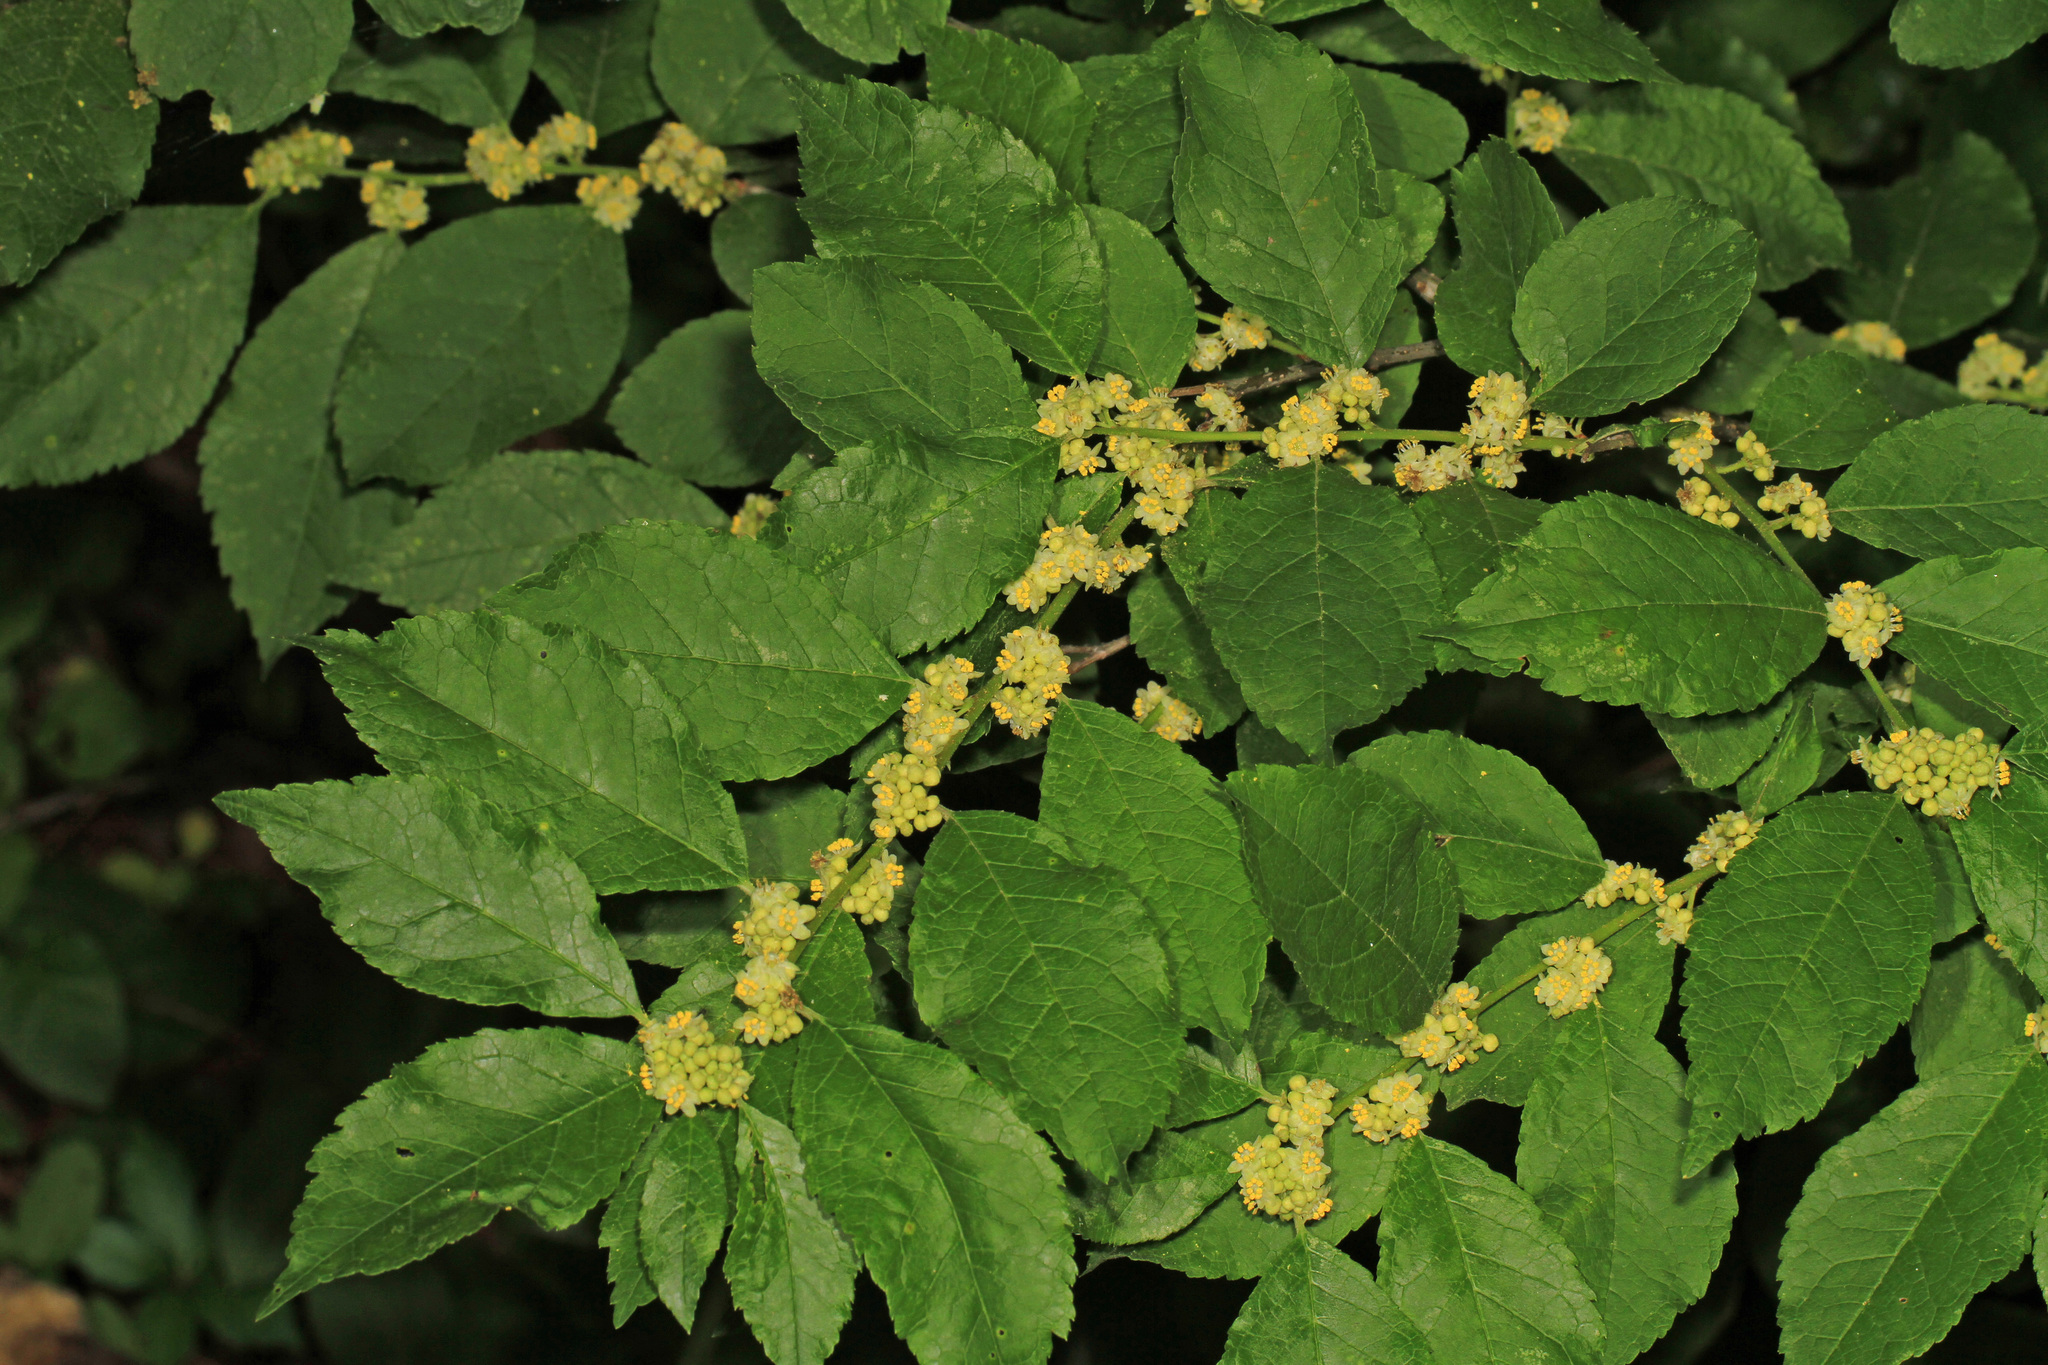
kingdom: Plantae
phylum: Tracheophyta
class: Magnoliopsida
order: Aquifoliales
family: Aquifoliaceae
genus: Ilex
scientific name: Ilex verticillata
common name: Virginia winterberry
